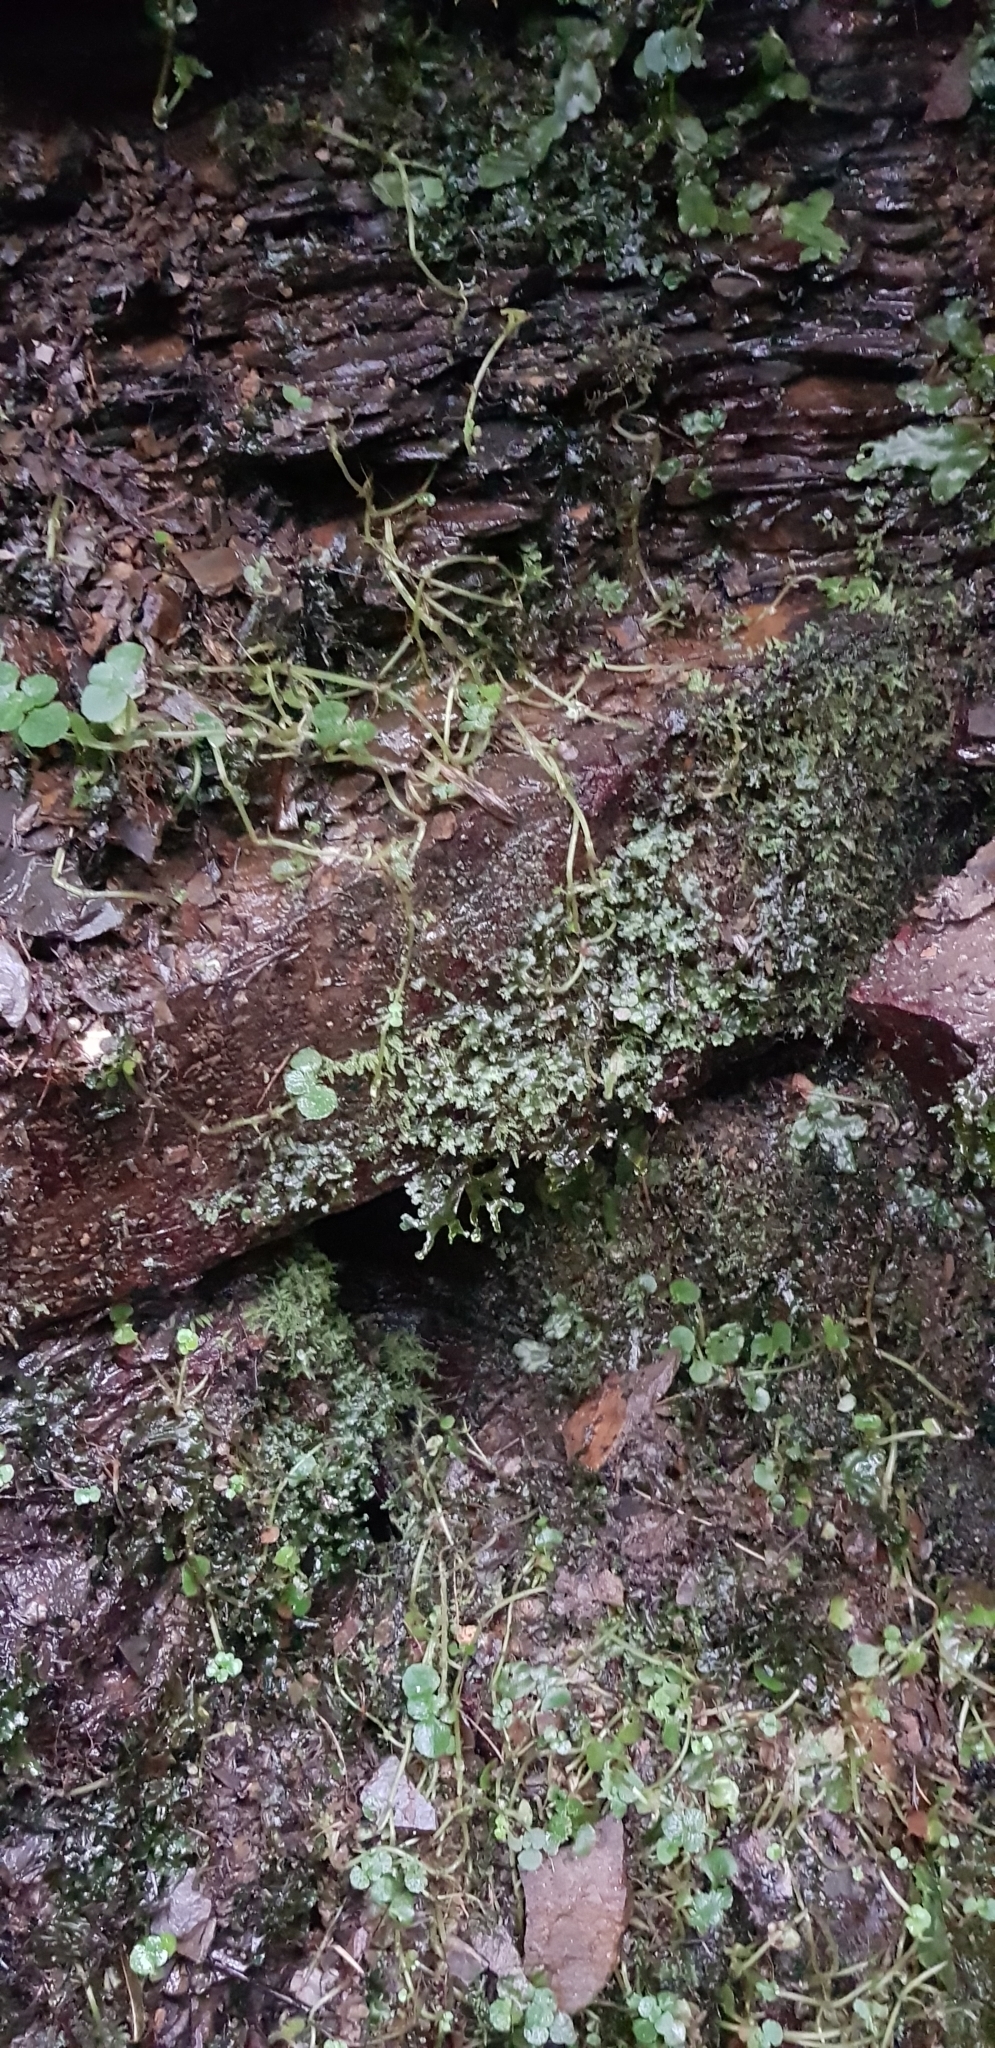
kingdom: Plantae
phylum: Marchantiophyta
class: Jungermanniopsida
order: Pelliales
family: Pelliaceae
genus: Apopellia
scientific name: Apopellia endiviifolia
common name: Endive pellia
